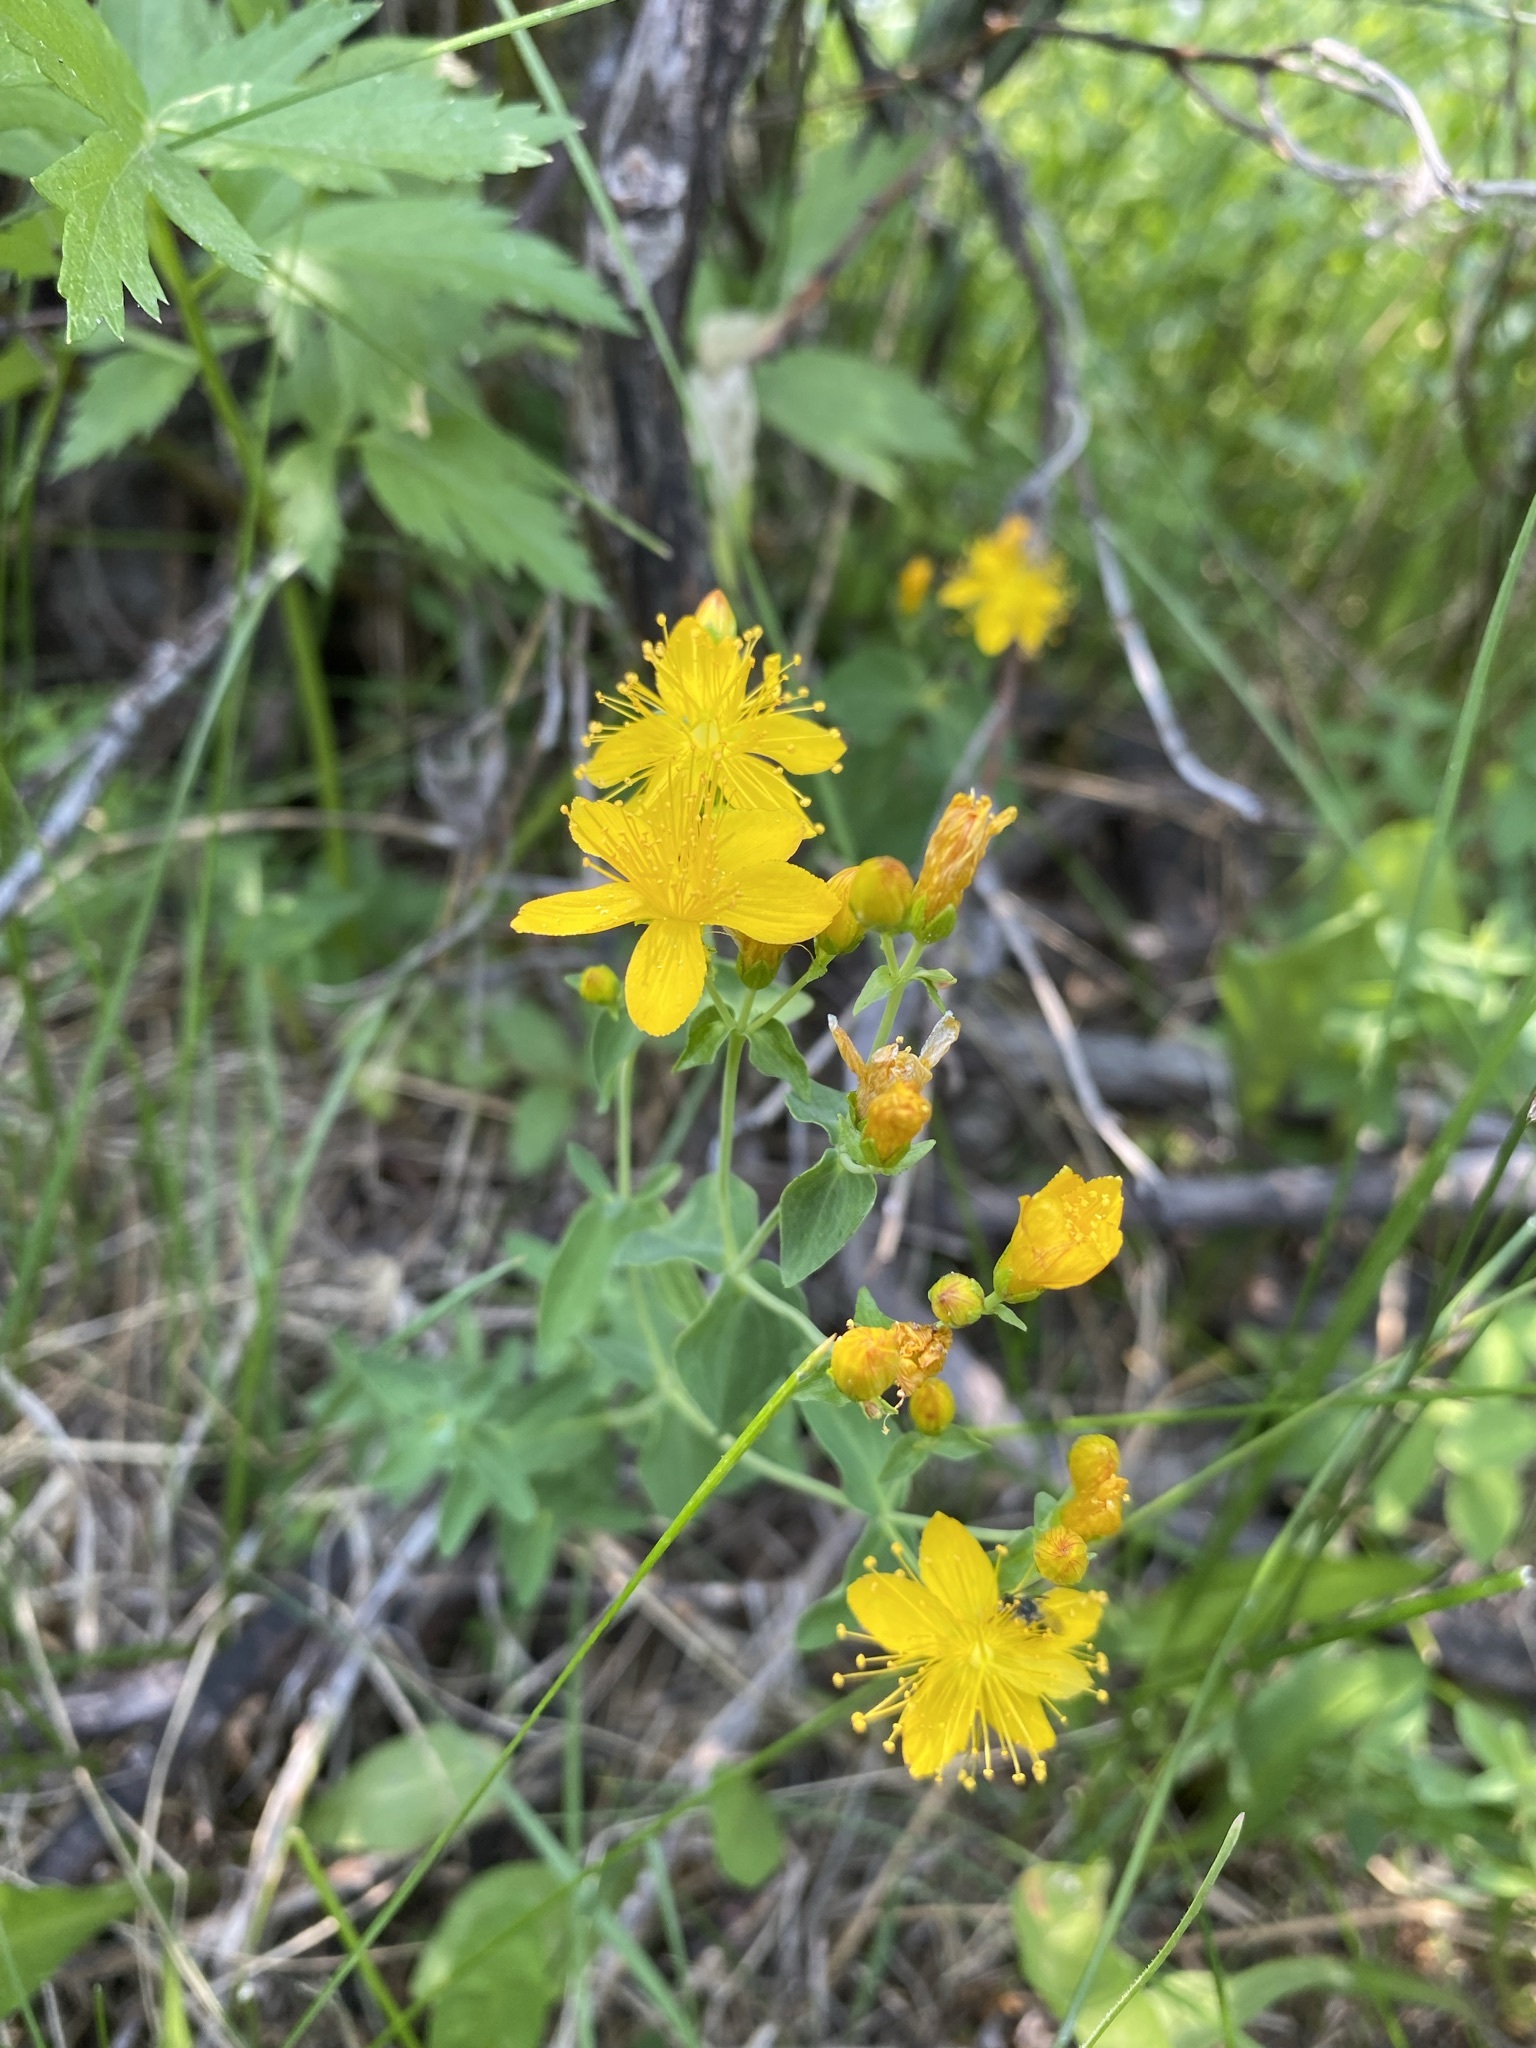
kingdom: Plantae
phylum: Tracheophyta
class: Magnoliopsida
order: Malpighiales
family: Hypericaceae
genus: Hypericum
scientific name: Hypericum perforatum
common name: Common st. johnswort
